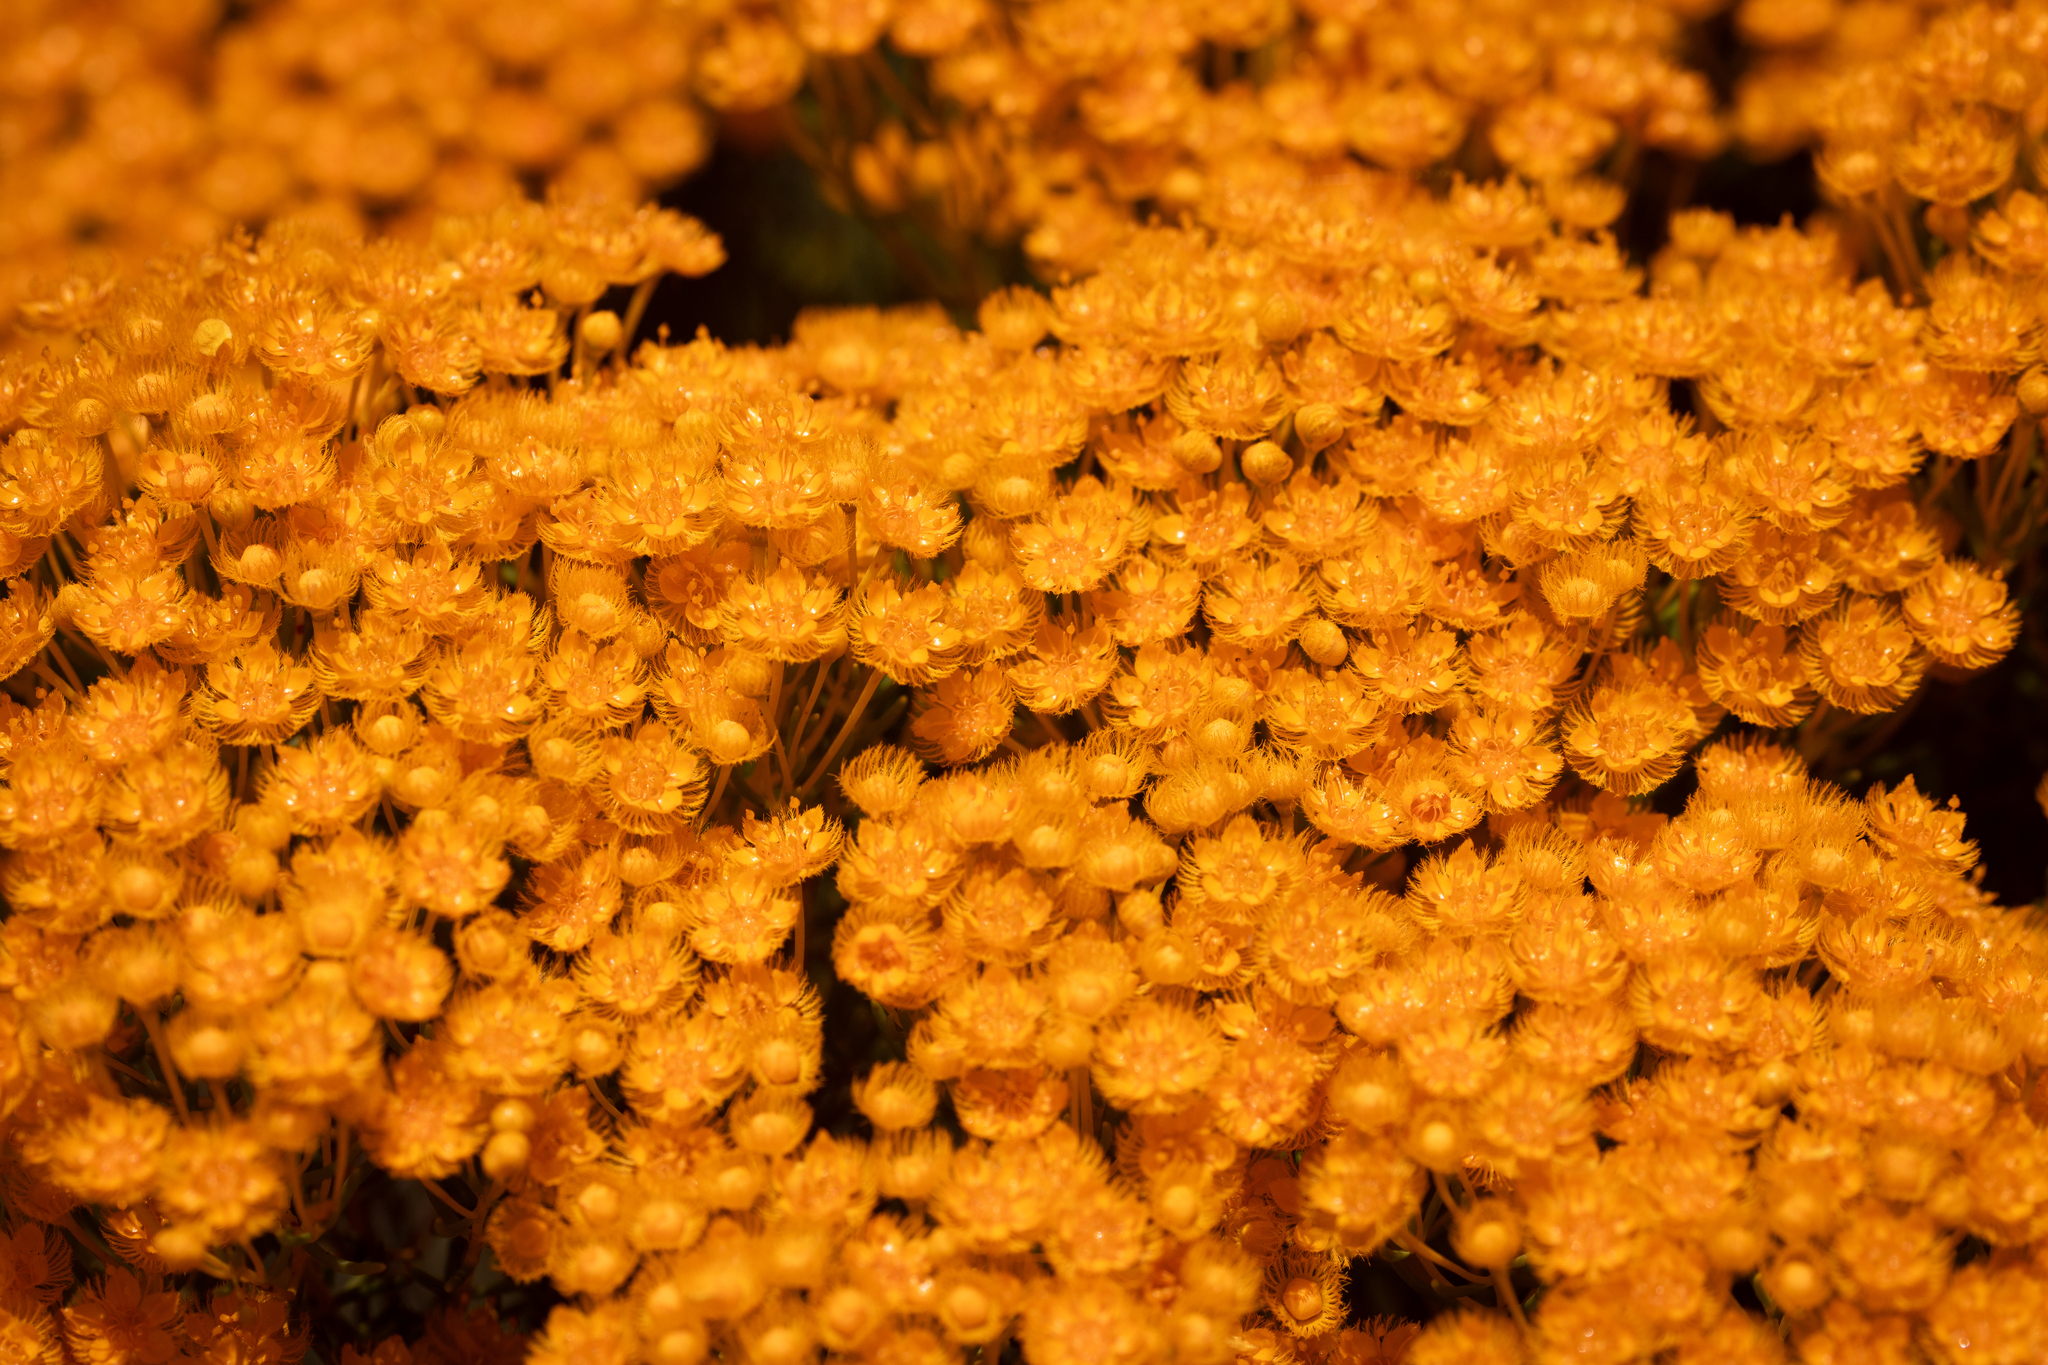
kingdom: Plantae
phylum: Tracheophyta
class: Magnoliopsida
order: Myrtales
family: Myrtaceae
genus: Verticordia
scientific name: Verticordia nitens
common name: Christmas morrison
